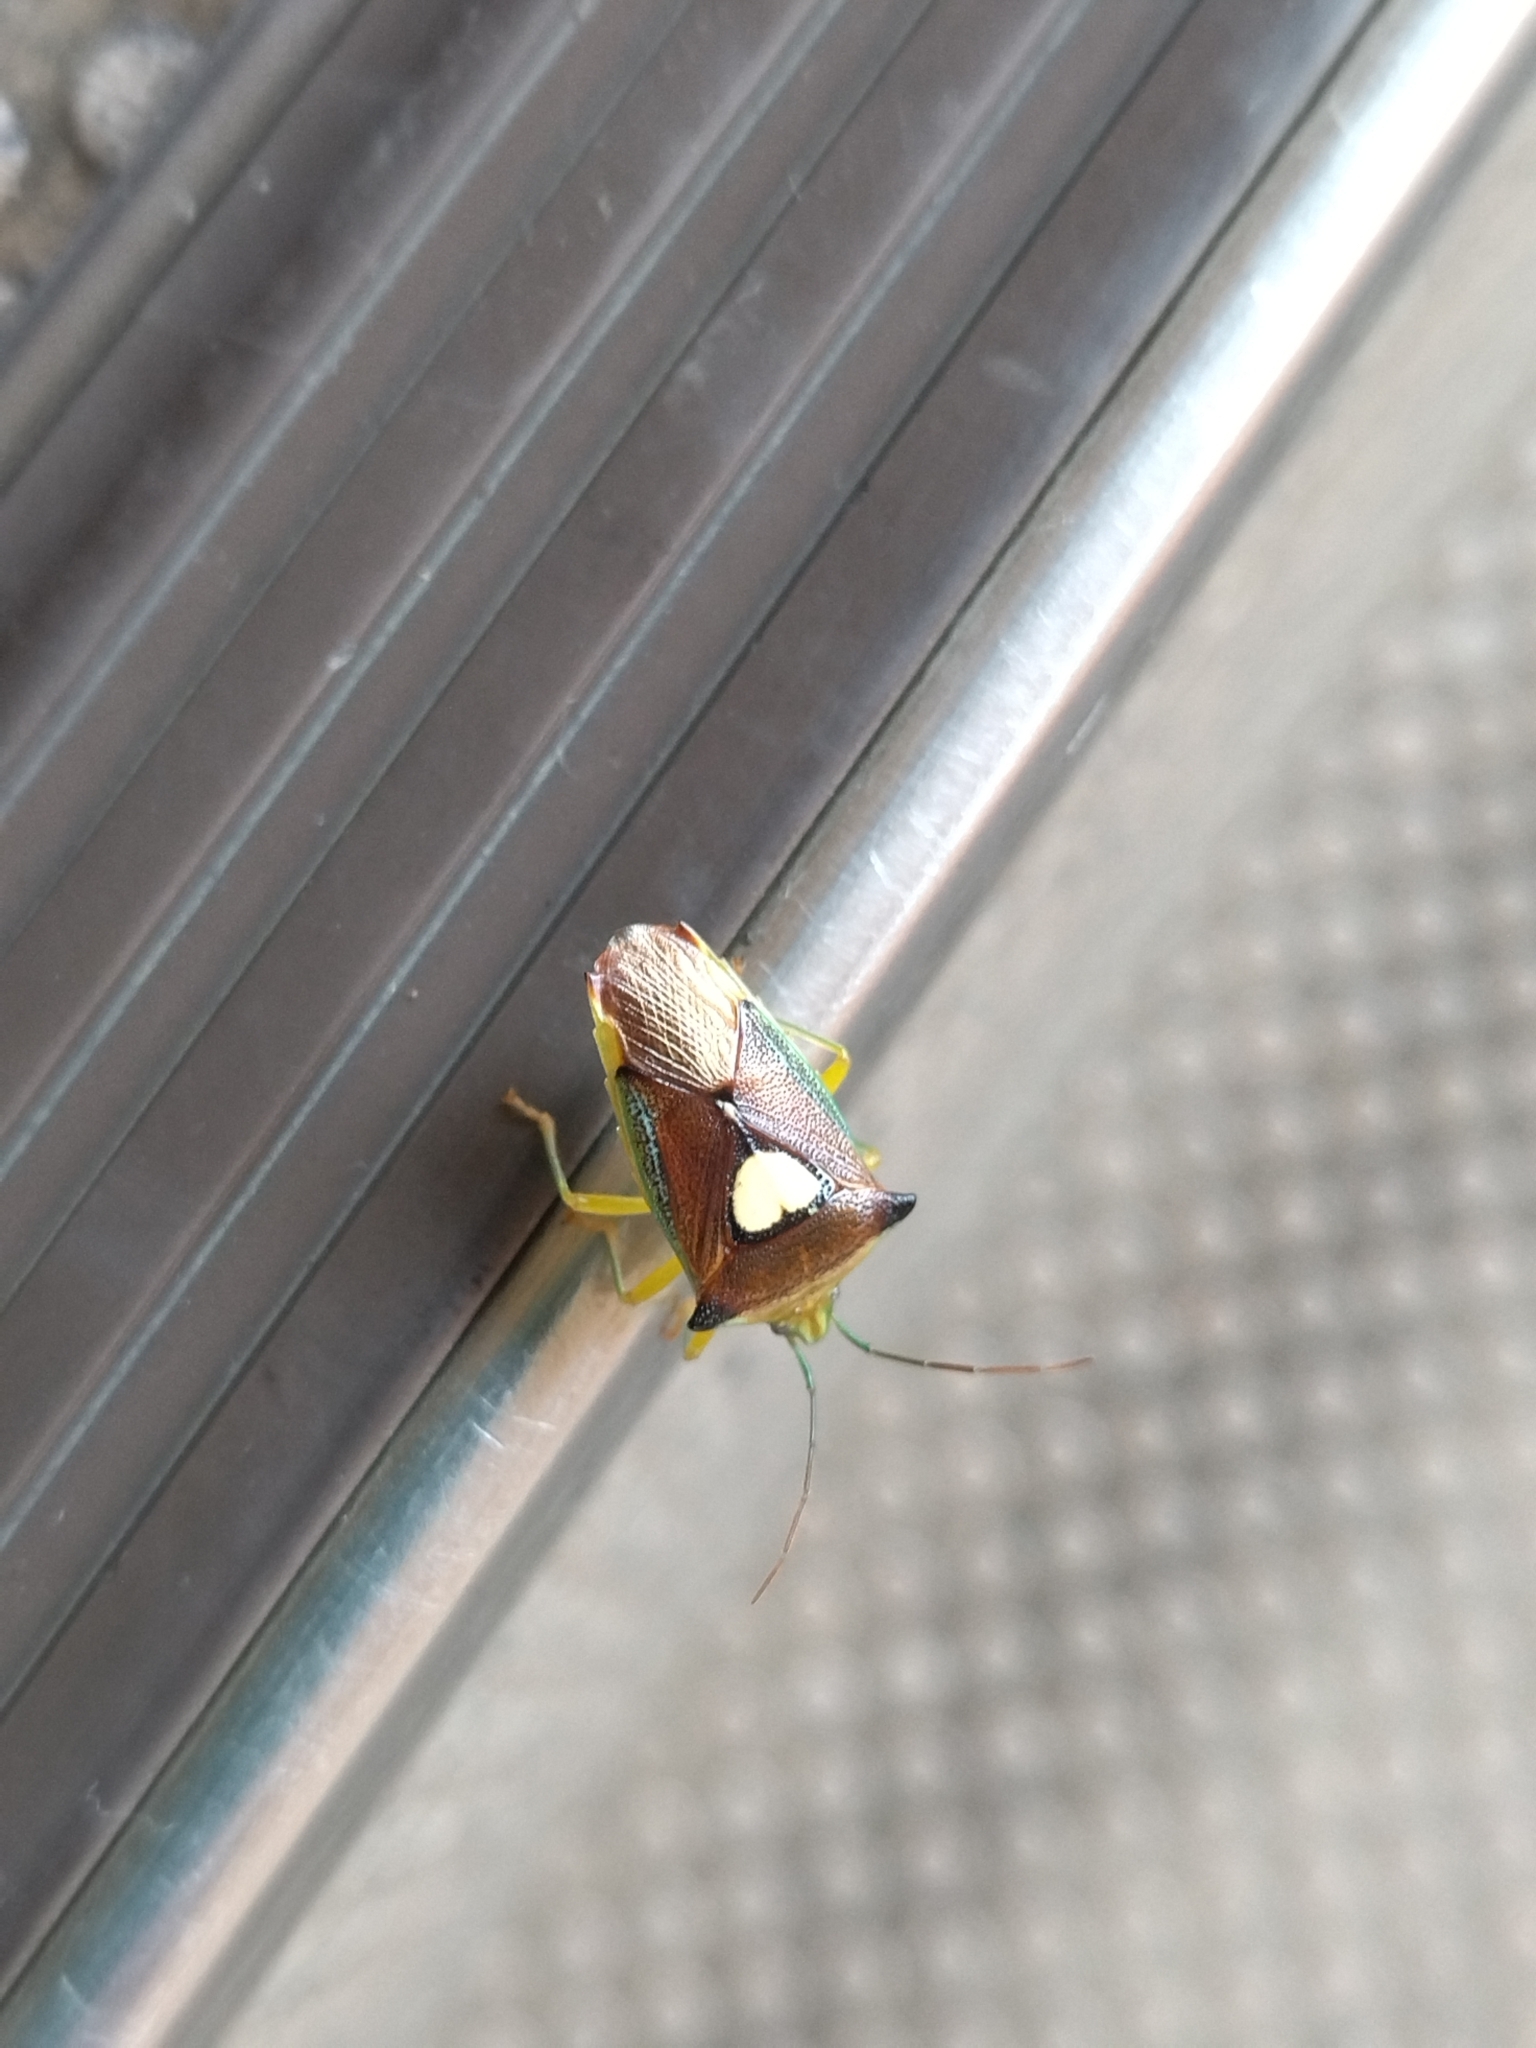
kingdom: Animalia
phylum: Arthropoda
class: Insecta
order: Hemiptera
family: Acanthosomatidae
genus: Sastragala
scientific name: Sastragala esakii
